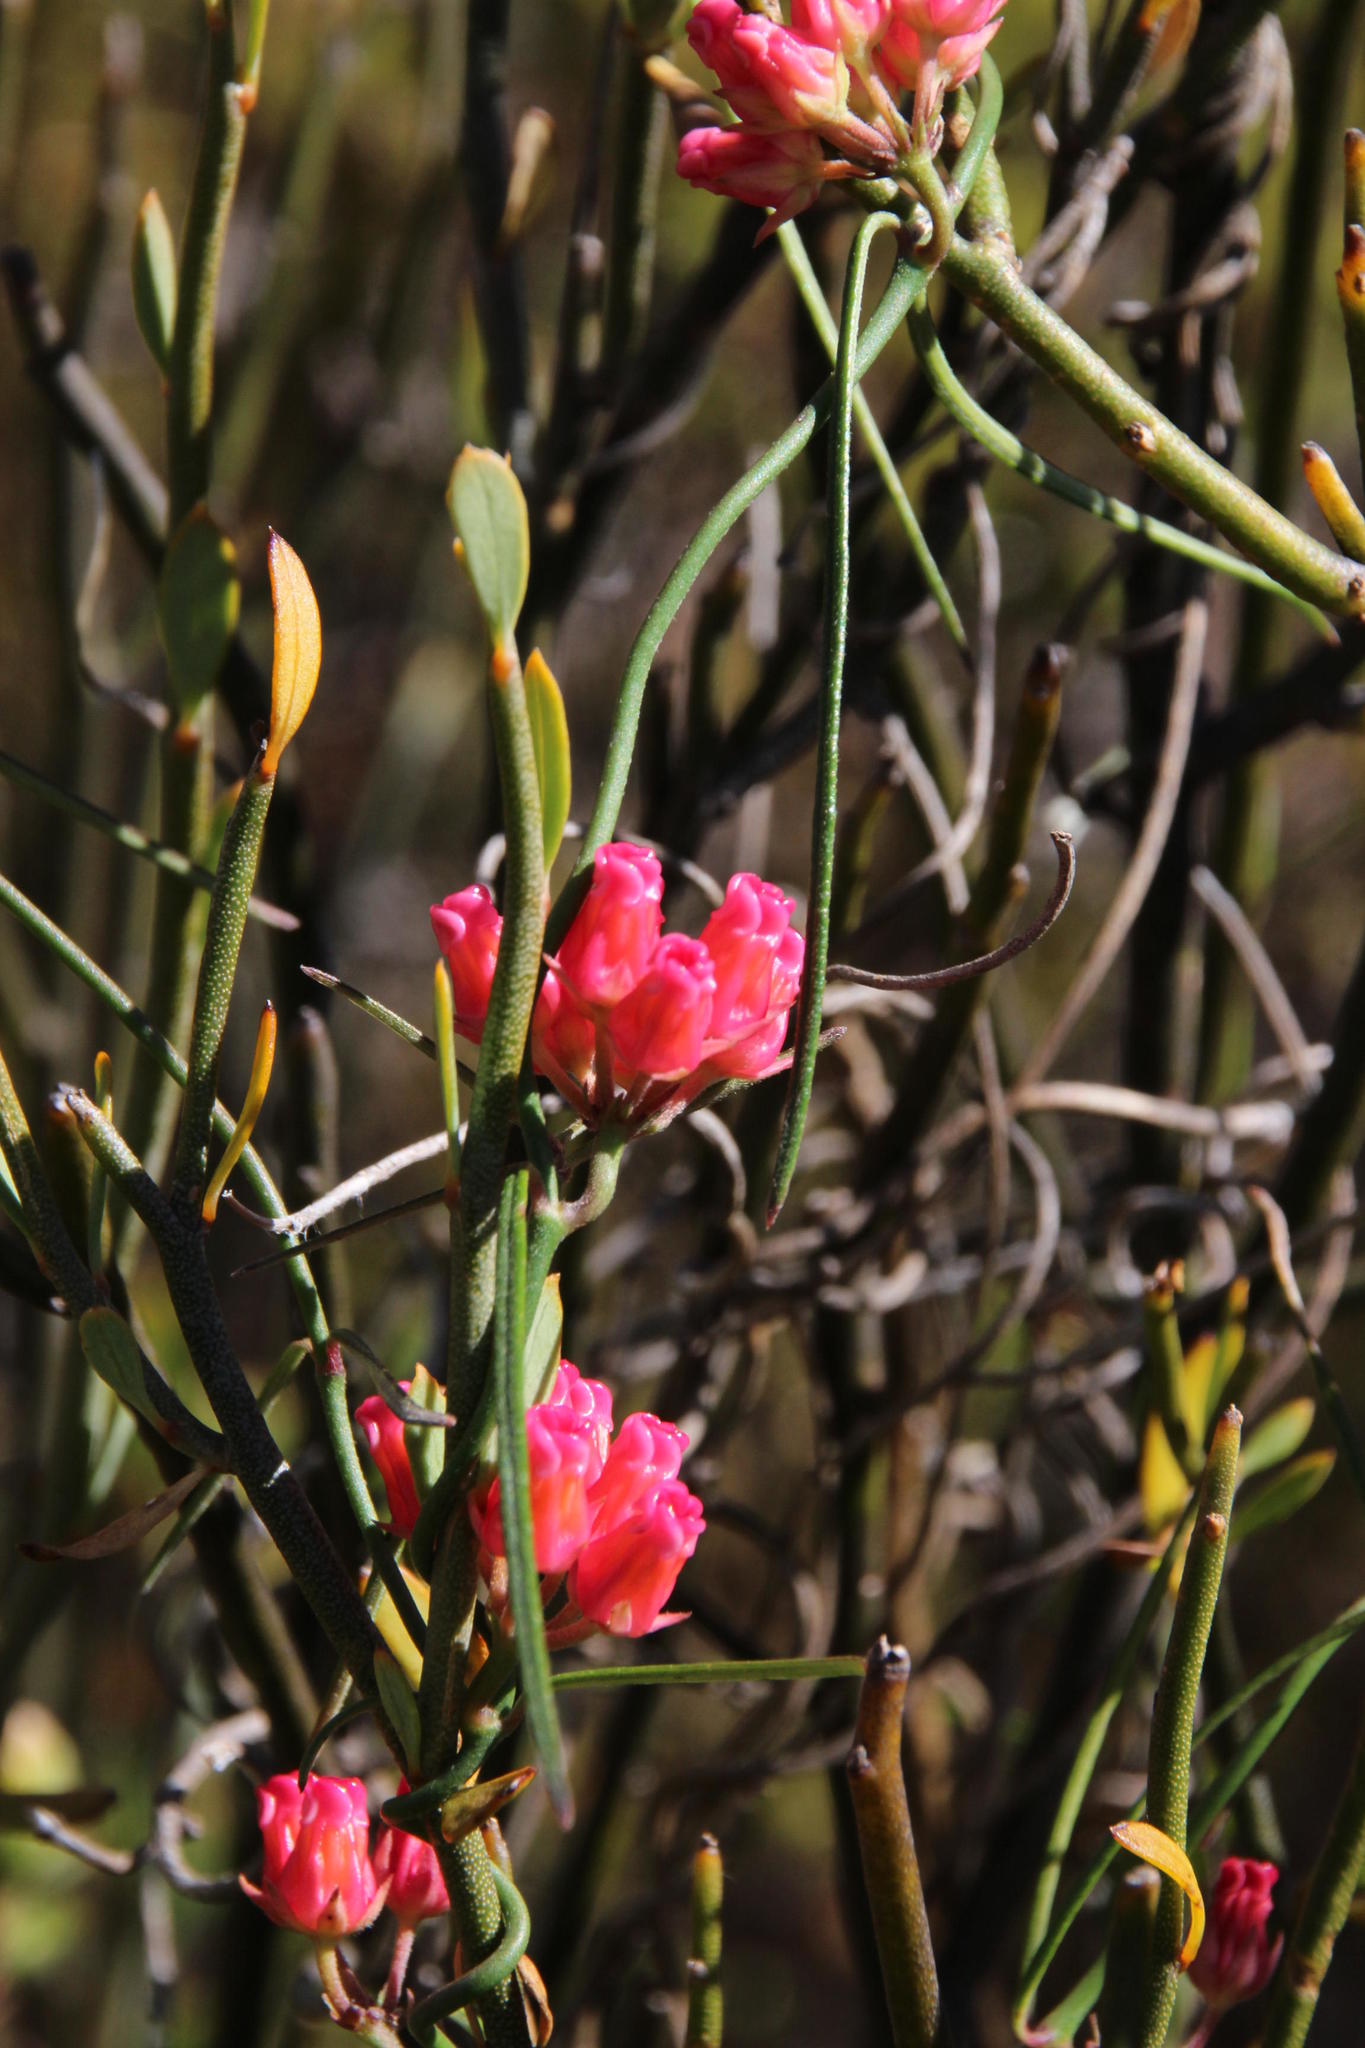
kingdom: Plantae
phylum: Tracheophyta
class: Magnoliopsida
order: Gentianales
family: Apocynaceae
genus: Microloma
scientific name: Microloma tenuifolium
